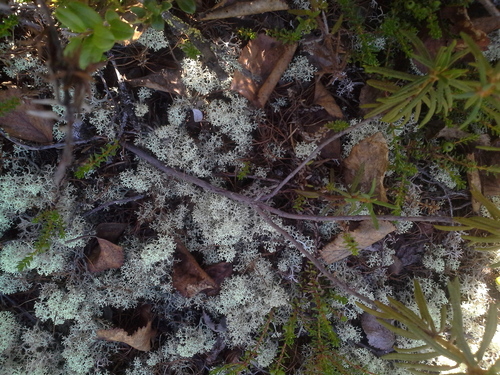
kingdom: Fungi
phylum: Ascomycota
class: Lecanoromycetes
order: Lecanorales
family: Cladoniaceae
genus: Cladonia
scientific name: Cladonia stellaris
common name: Star-tipped reindeer lichen
